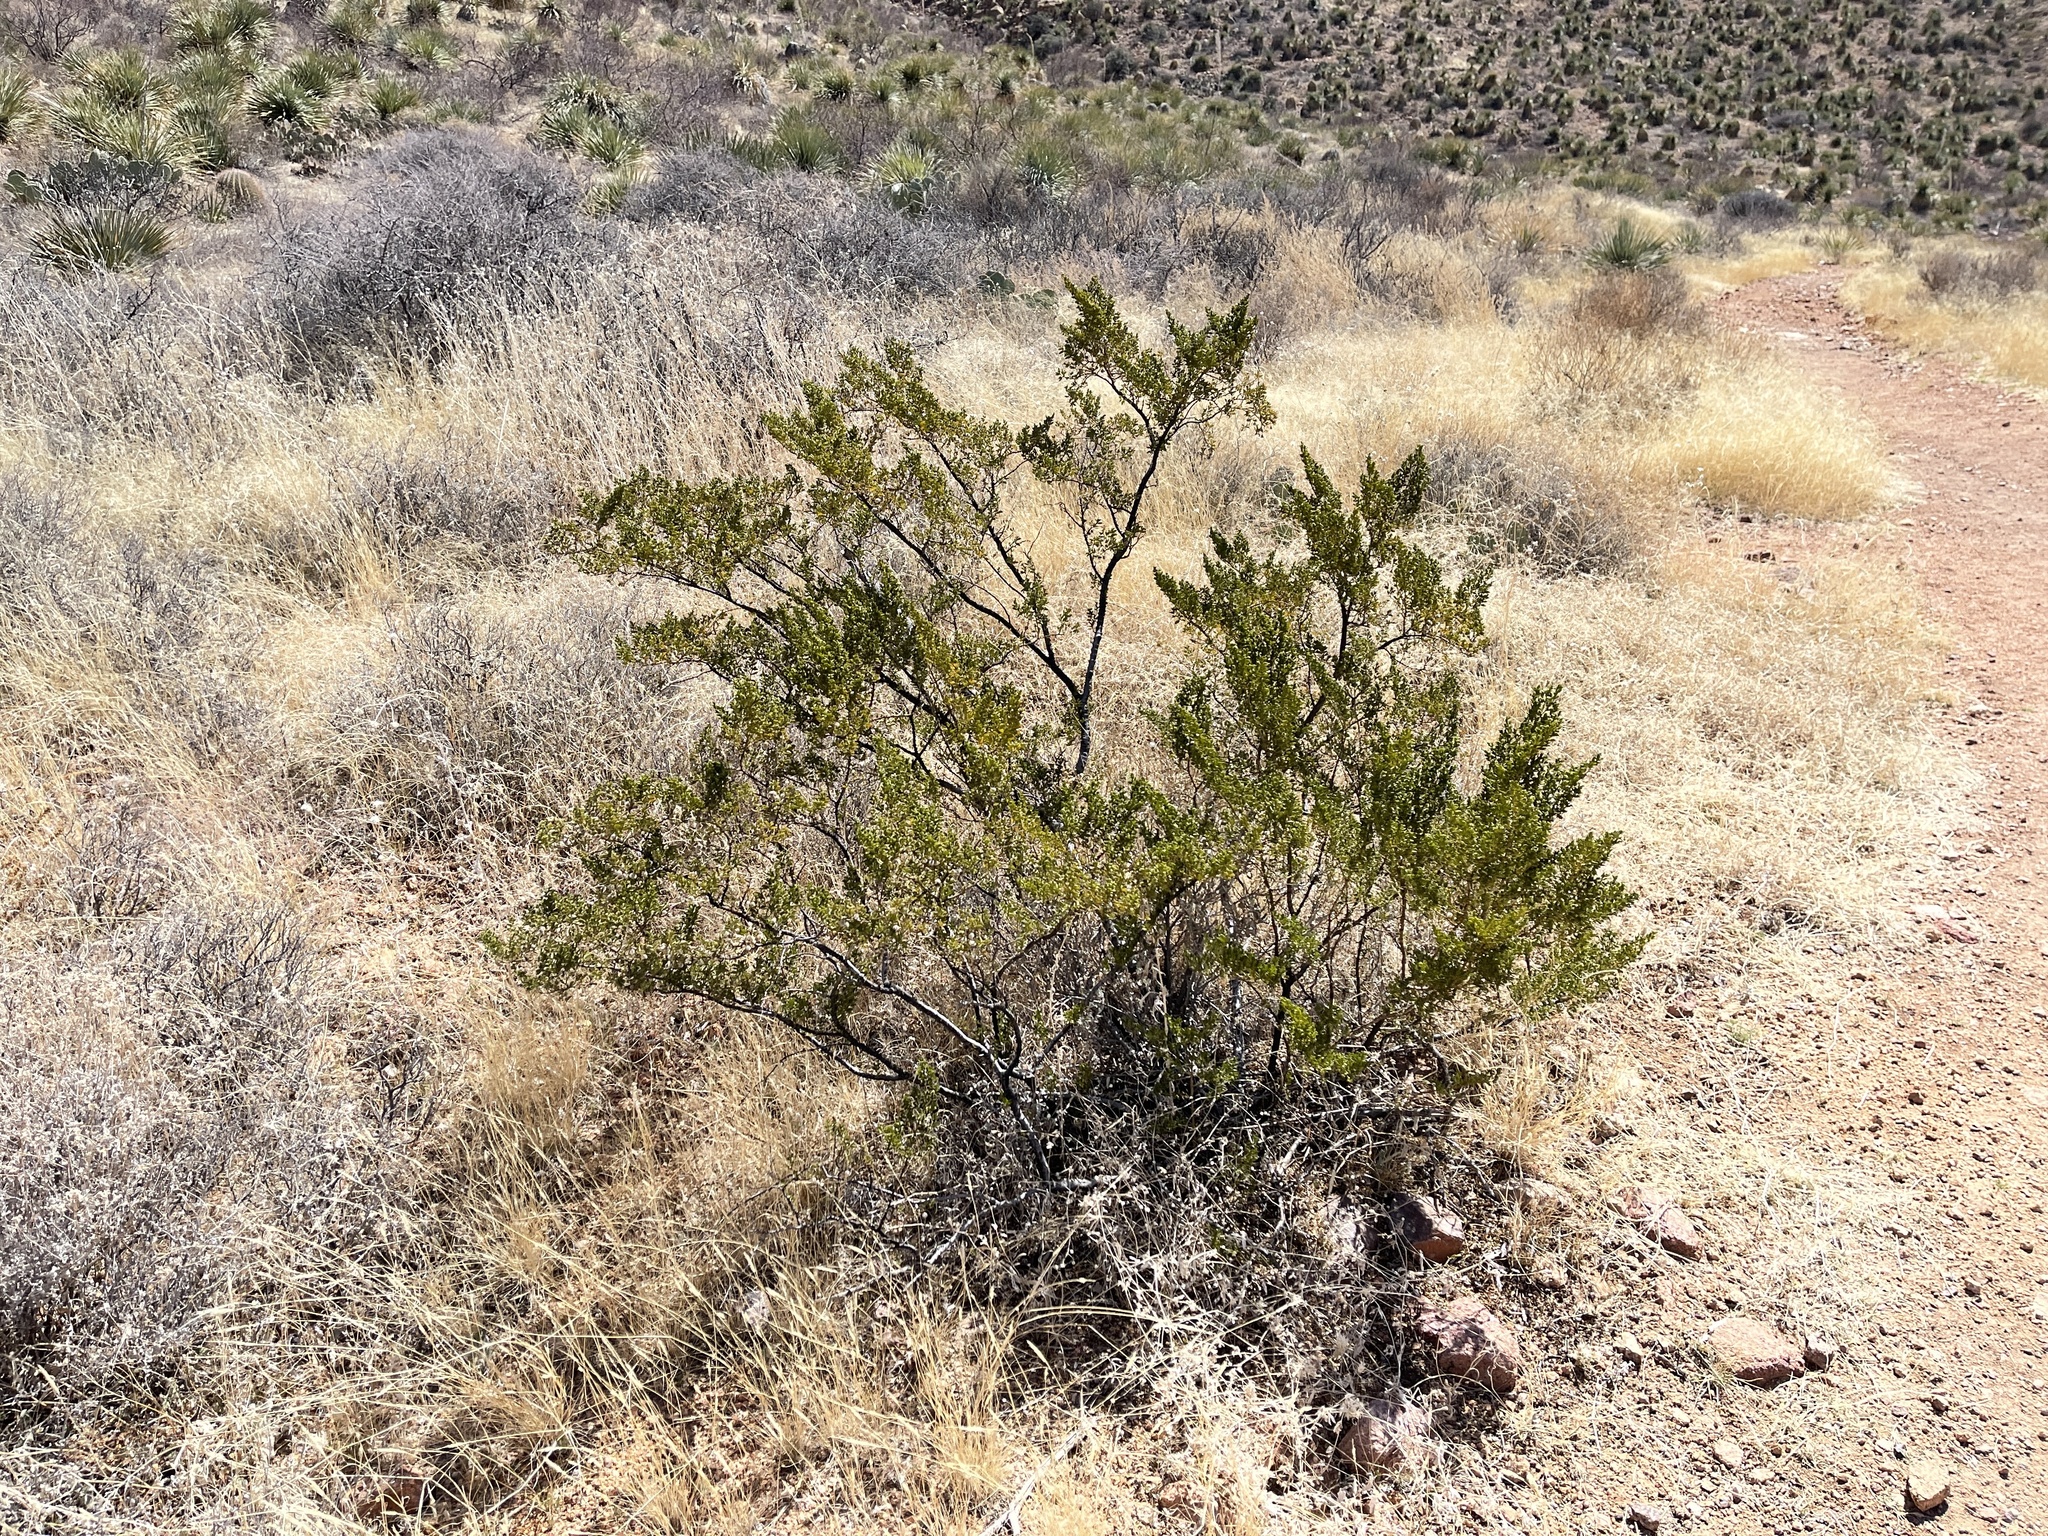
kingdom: Plantae
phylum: Tracheophyta
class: Magnoliopsida
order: Zygophyllales
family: Zygophyllaceae
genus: Larrea
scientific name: Larrea tridentata
